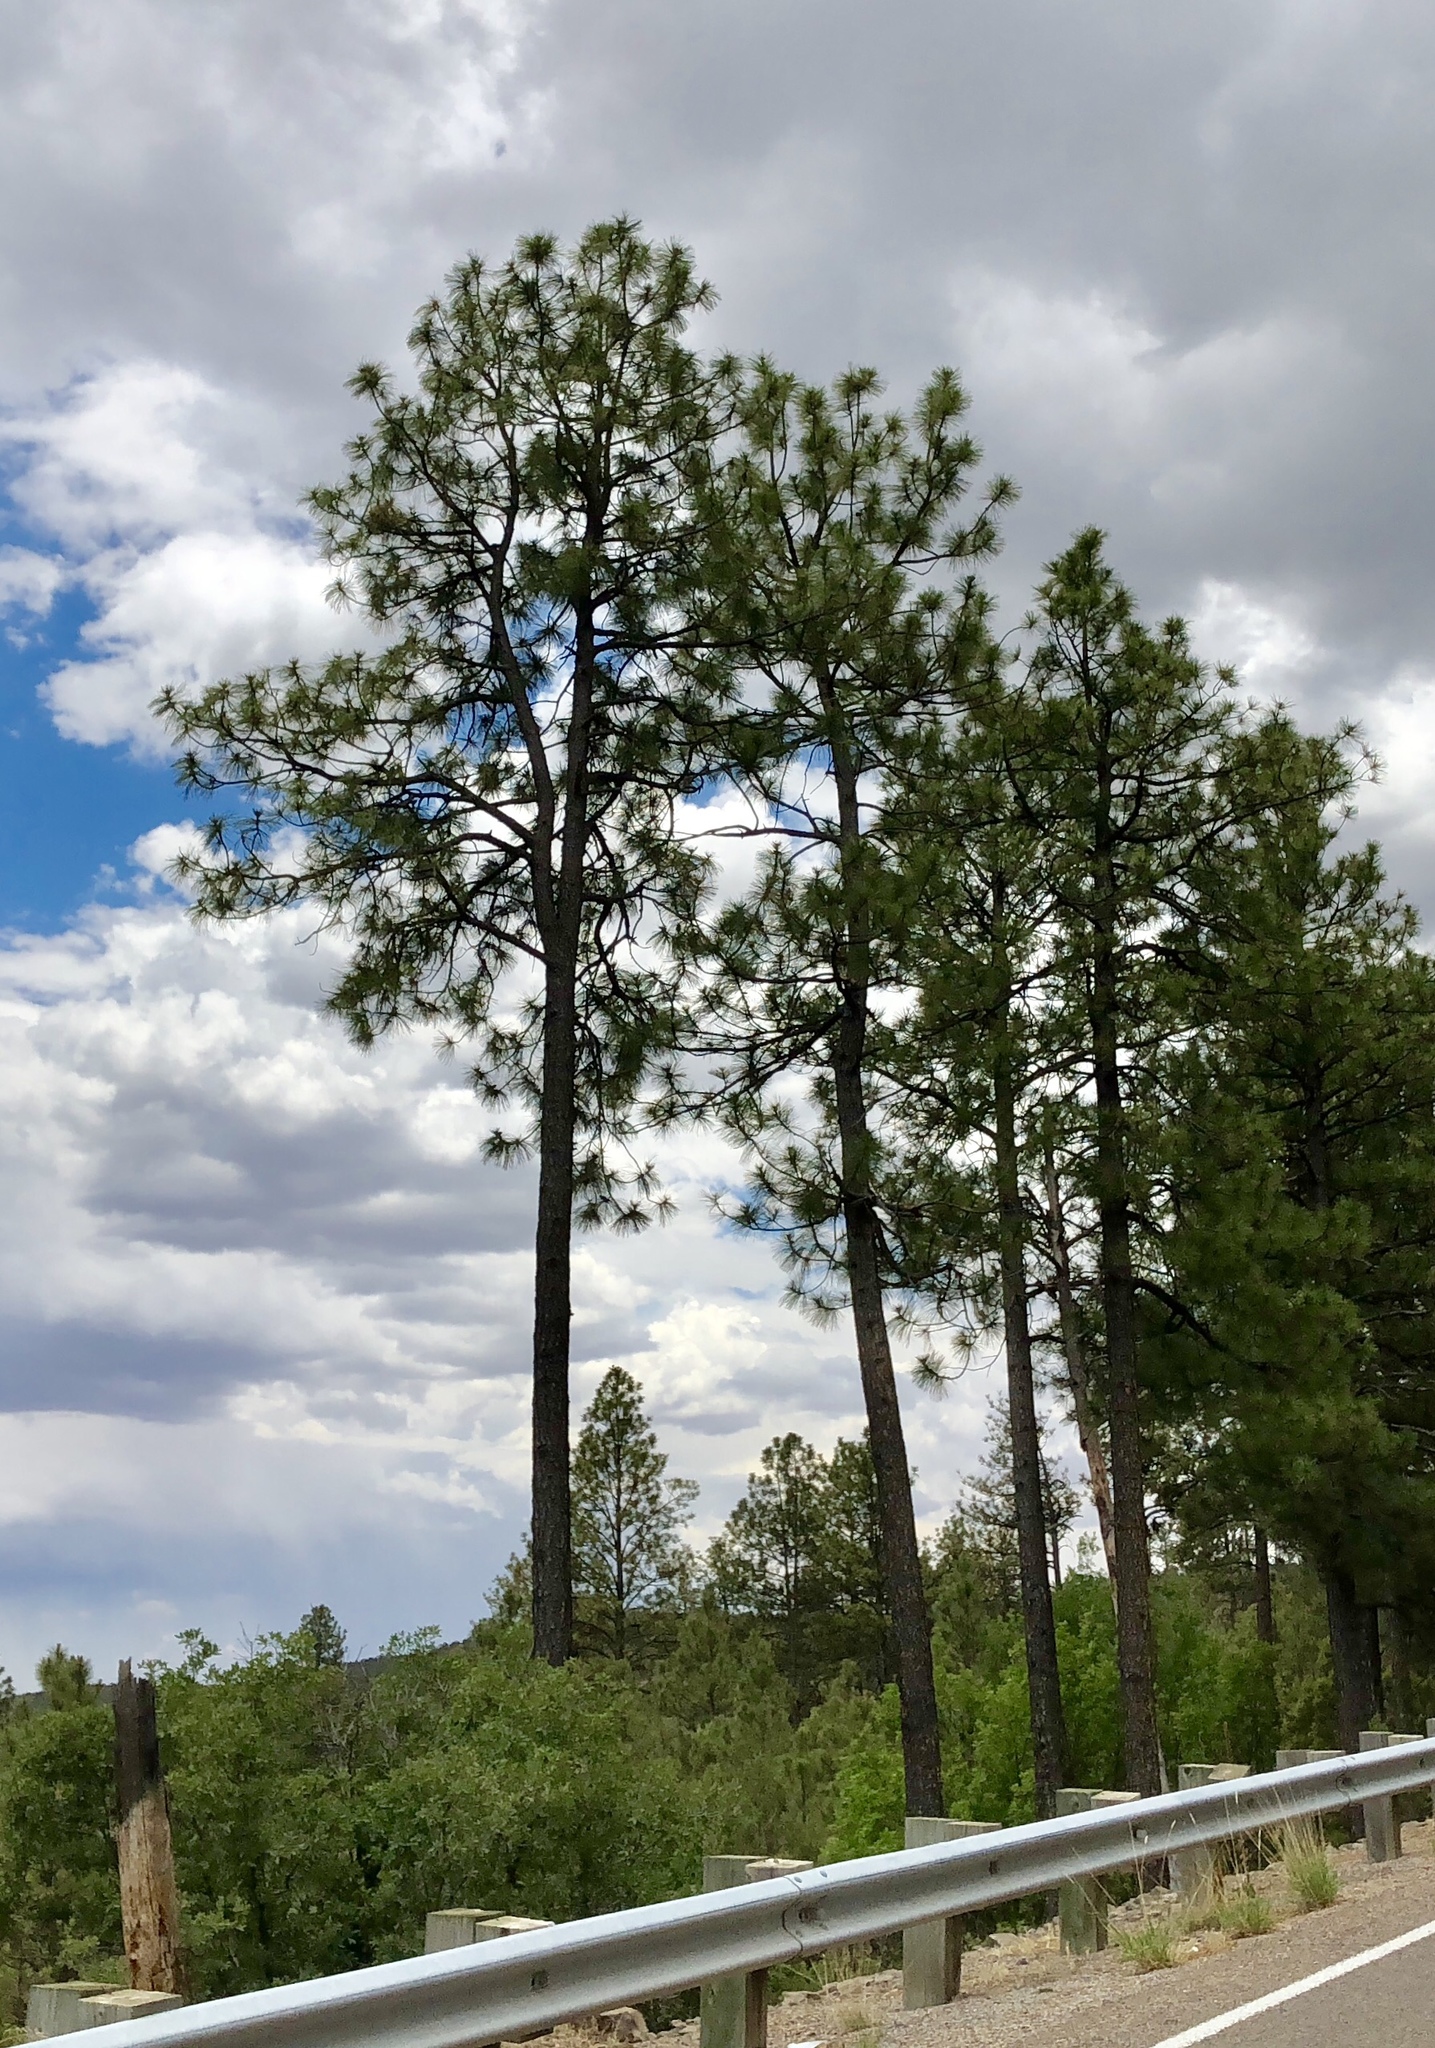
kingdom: Plantae
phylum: Tracheophyta
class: Pinopsida
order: Pinales
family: Pinaceae
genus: Pinus
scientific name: Pinus ponderosa
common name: Western yellow-pine
